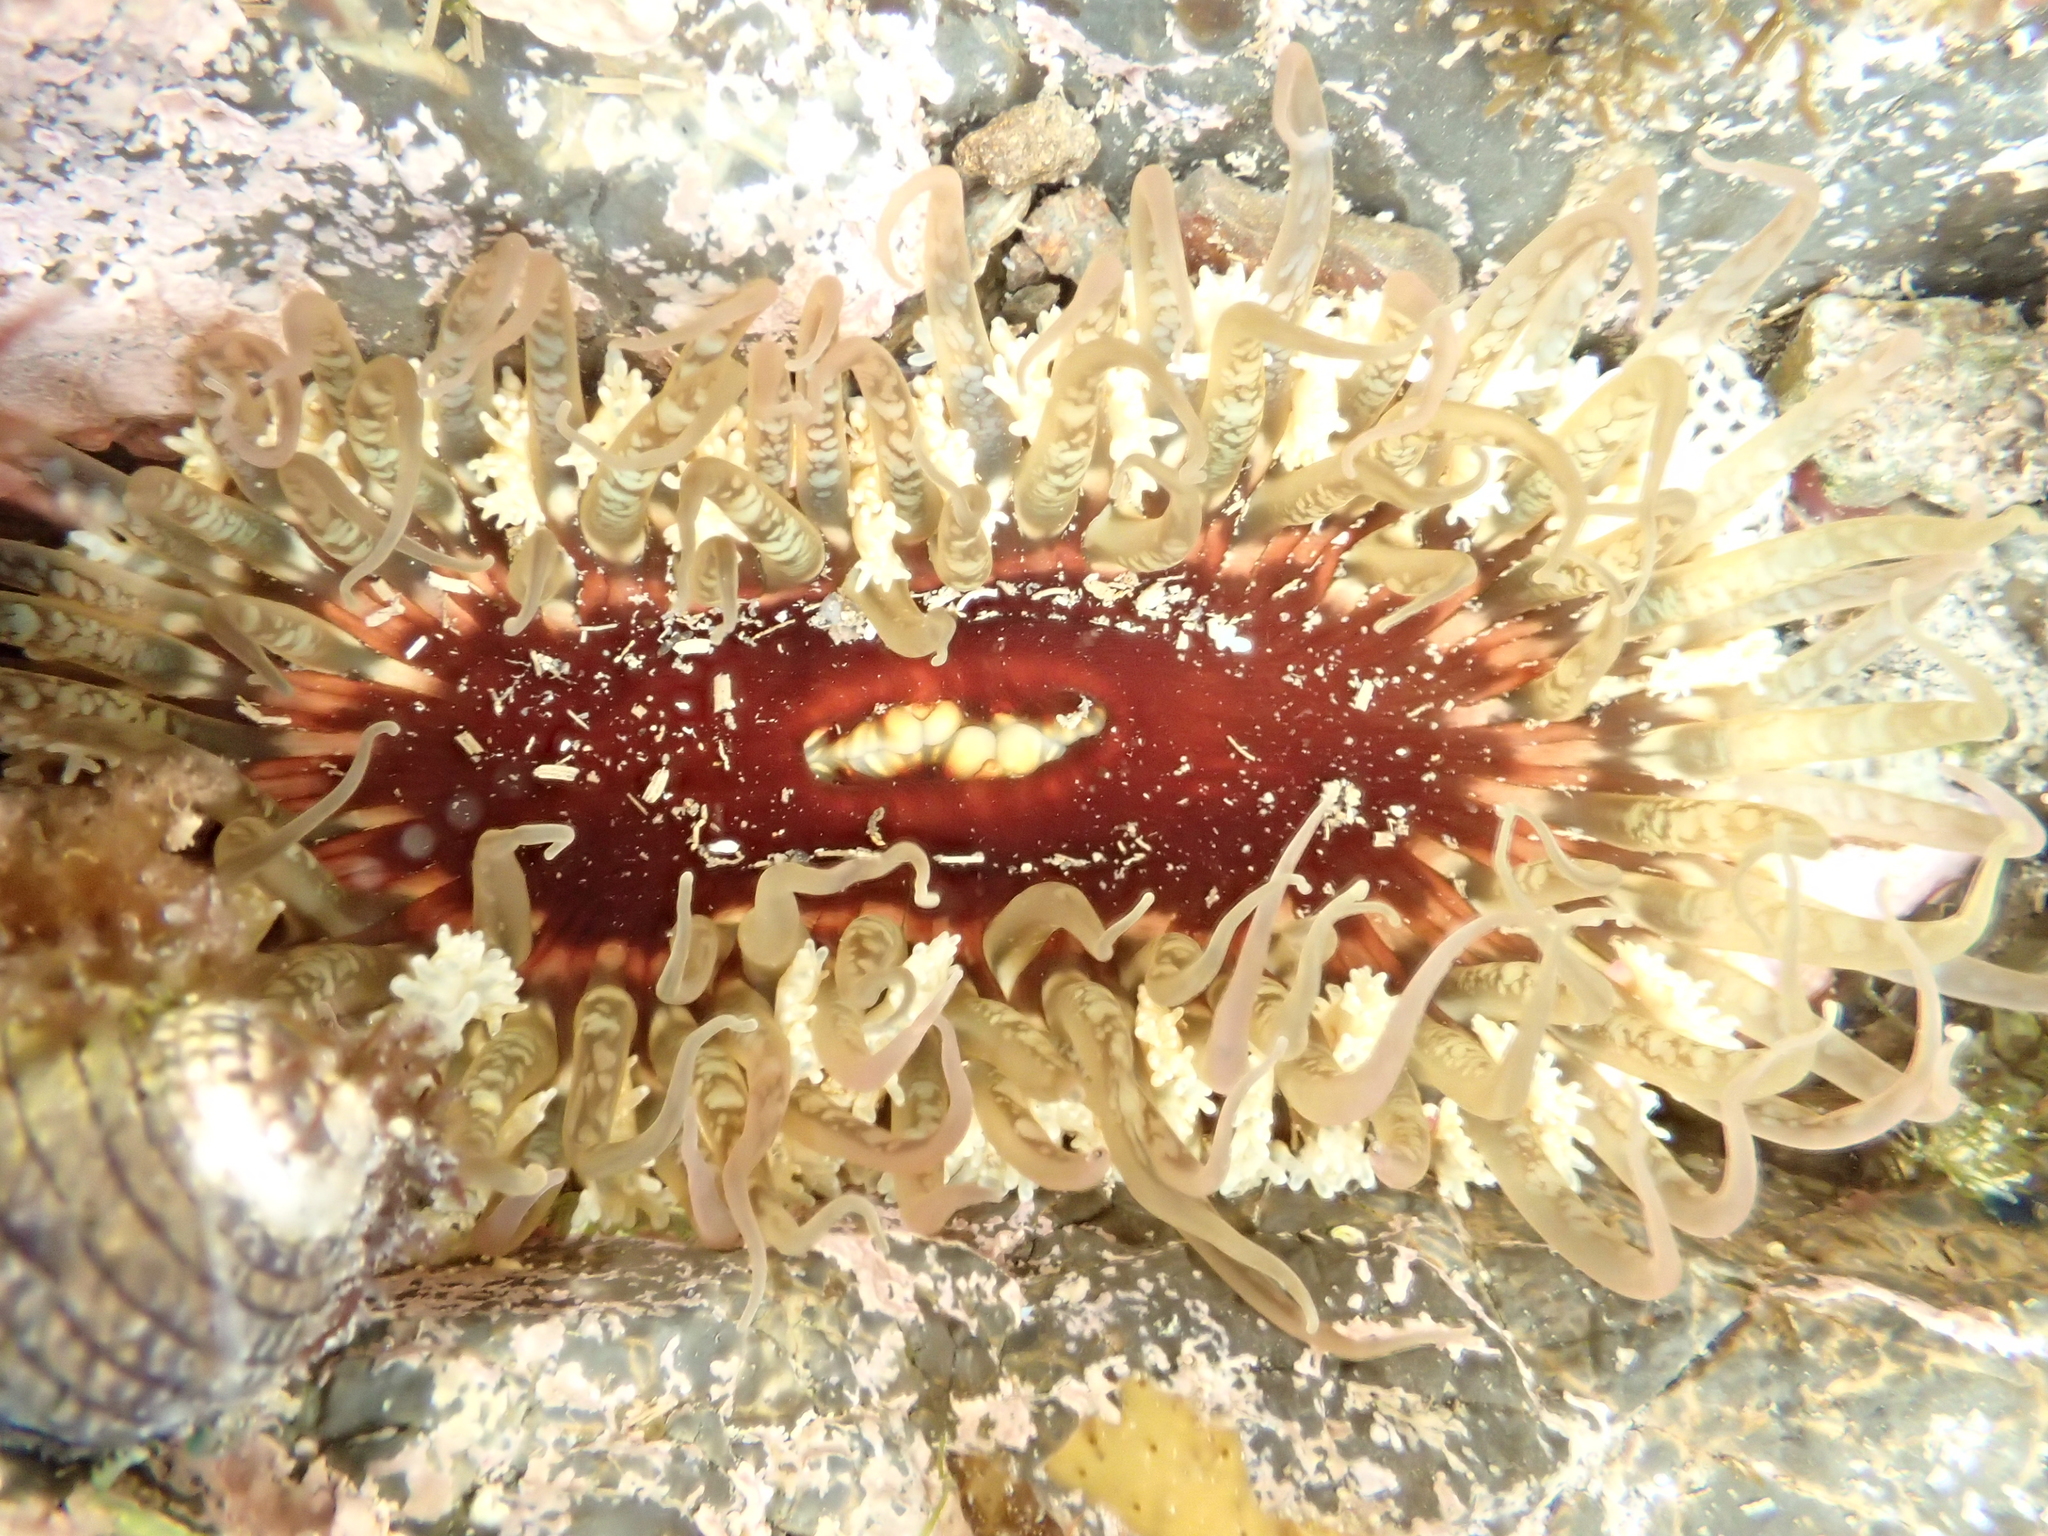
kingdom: Animalia
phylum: Cnidaria
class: Anthozoa
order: Actiniaria
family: Actiniidae
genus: Oulactis
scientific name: Oulactis muscosa
